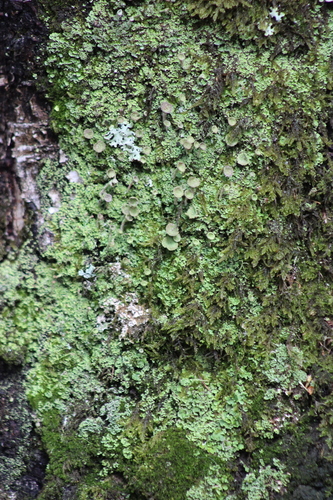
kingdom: Fungi
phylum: Ascomycota
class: Lecanoromycetes
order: Lecanorales
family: Cladoniaceae
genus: Cladonia
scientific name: Cladonia
